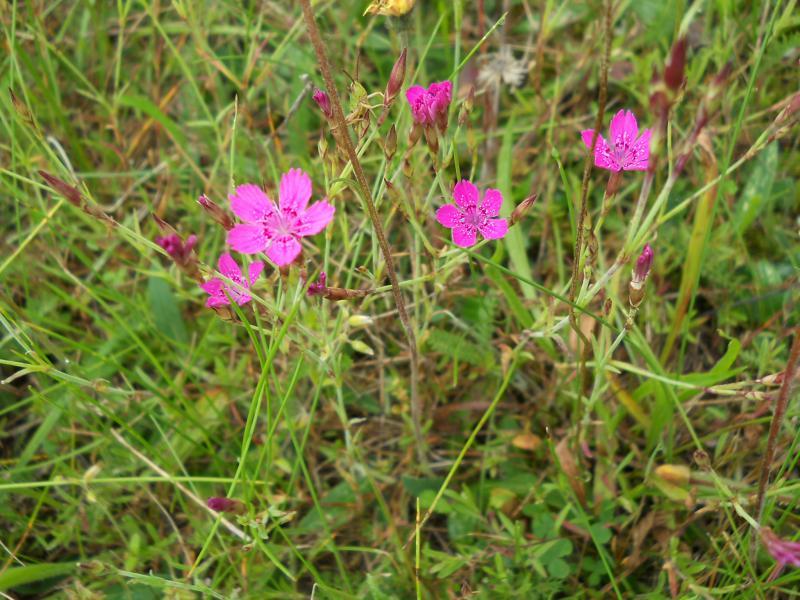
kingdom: Plantae
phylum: Tracheophyta
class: Magnoliopsida
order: Caryophyllales
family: Caryophyllaceae
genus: Dianthus
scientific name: Dianthus deltoides
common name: Maiden pink
